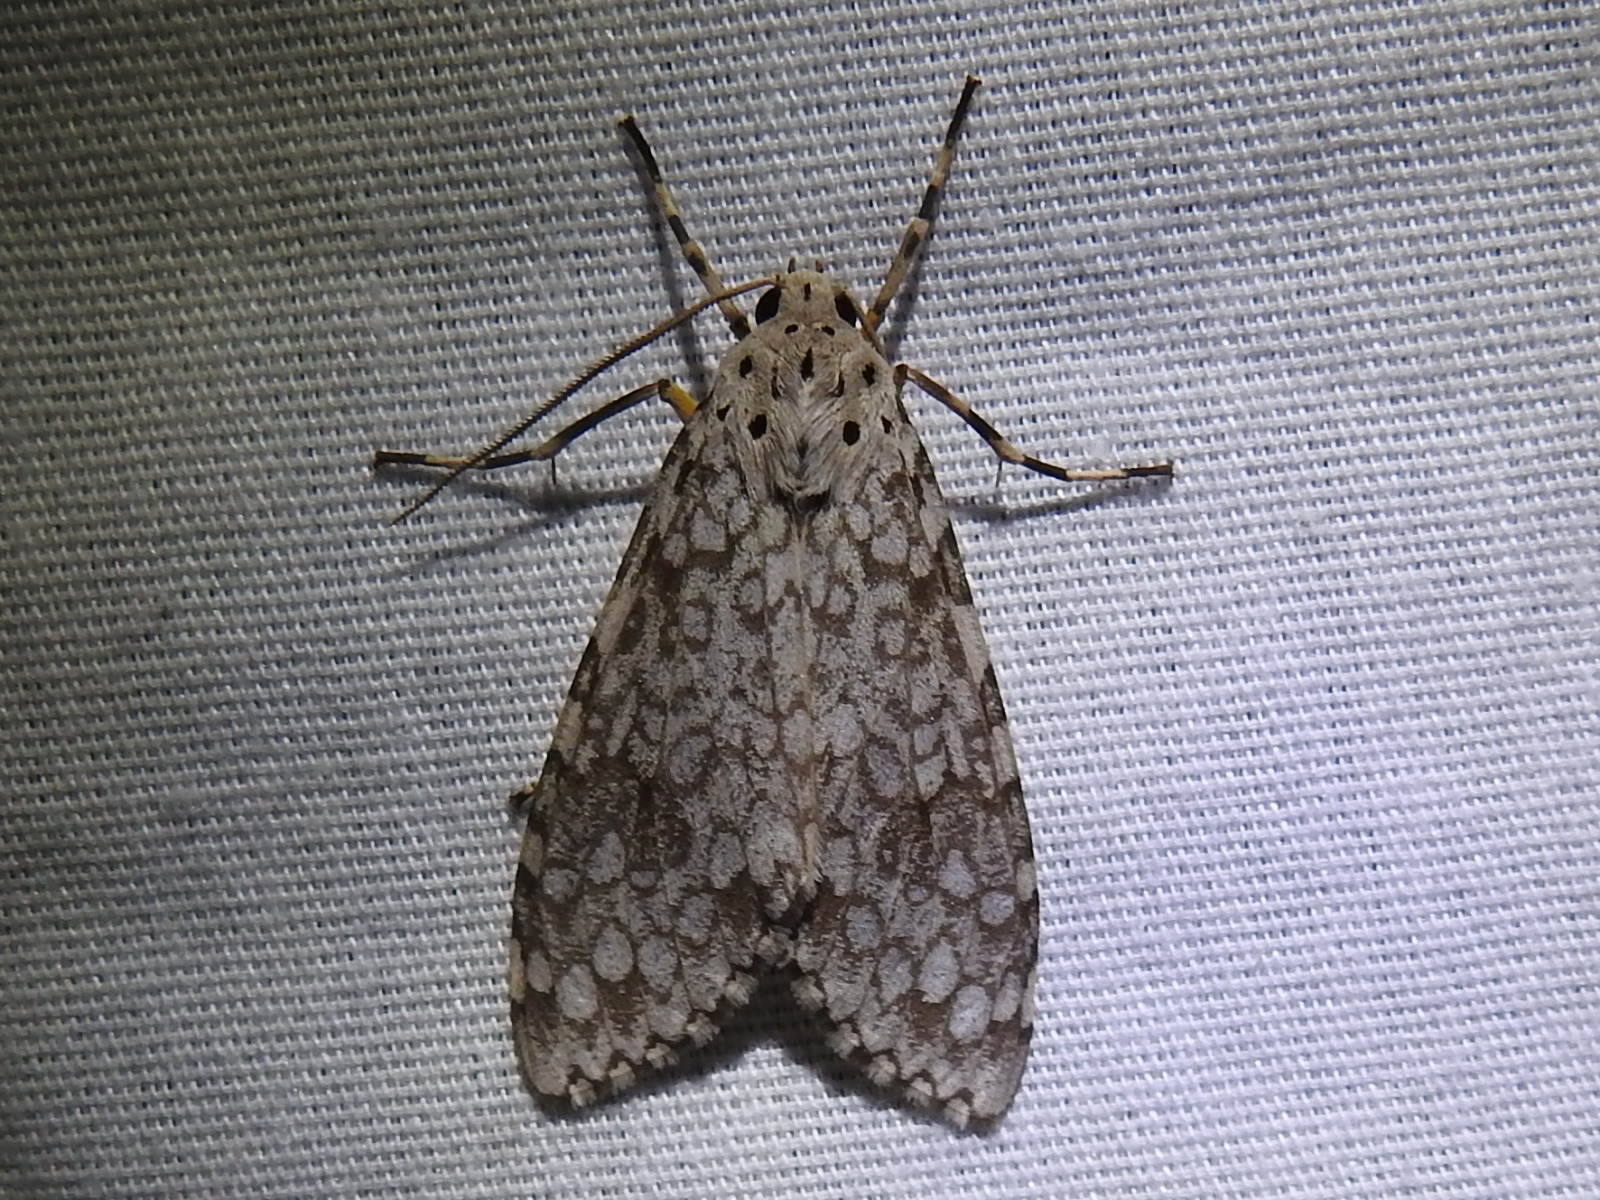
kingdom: Animalia
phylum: Arthropoda
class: Insecta
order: Lepidoptera
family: Erebidae
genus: Carales
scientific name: Carales arizonensis
